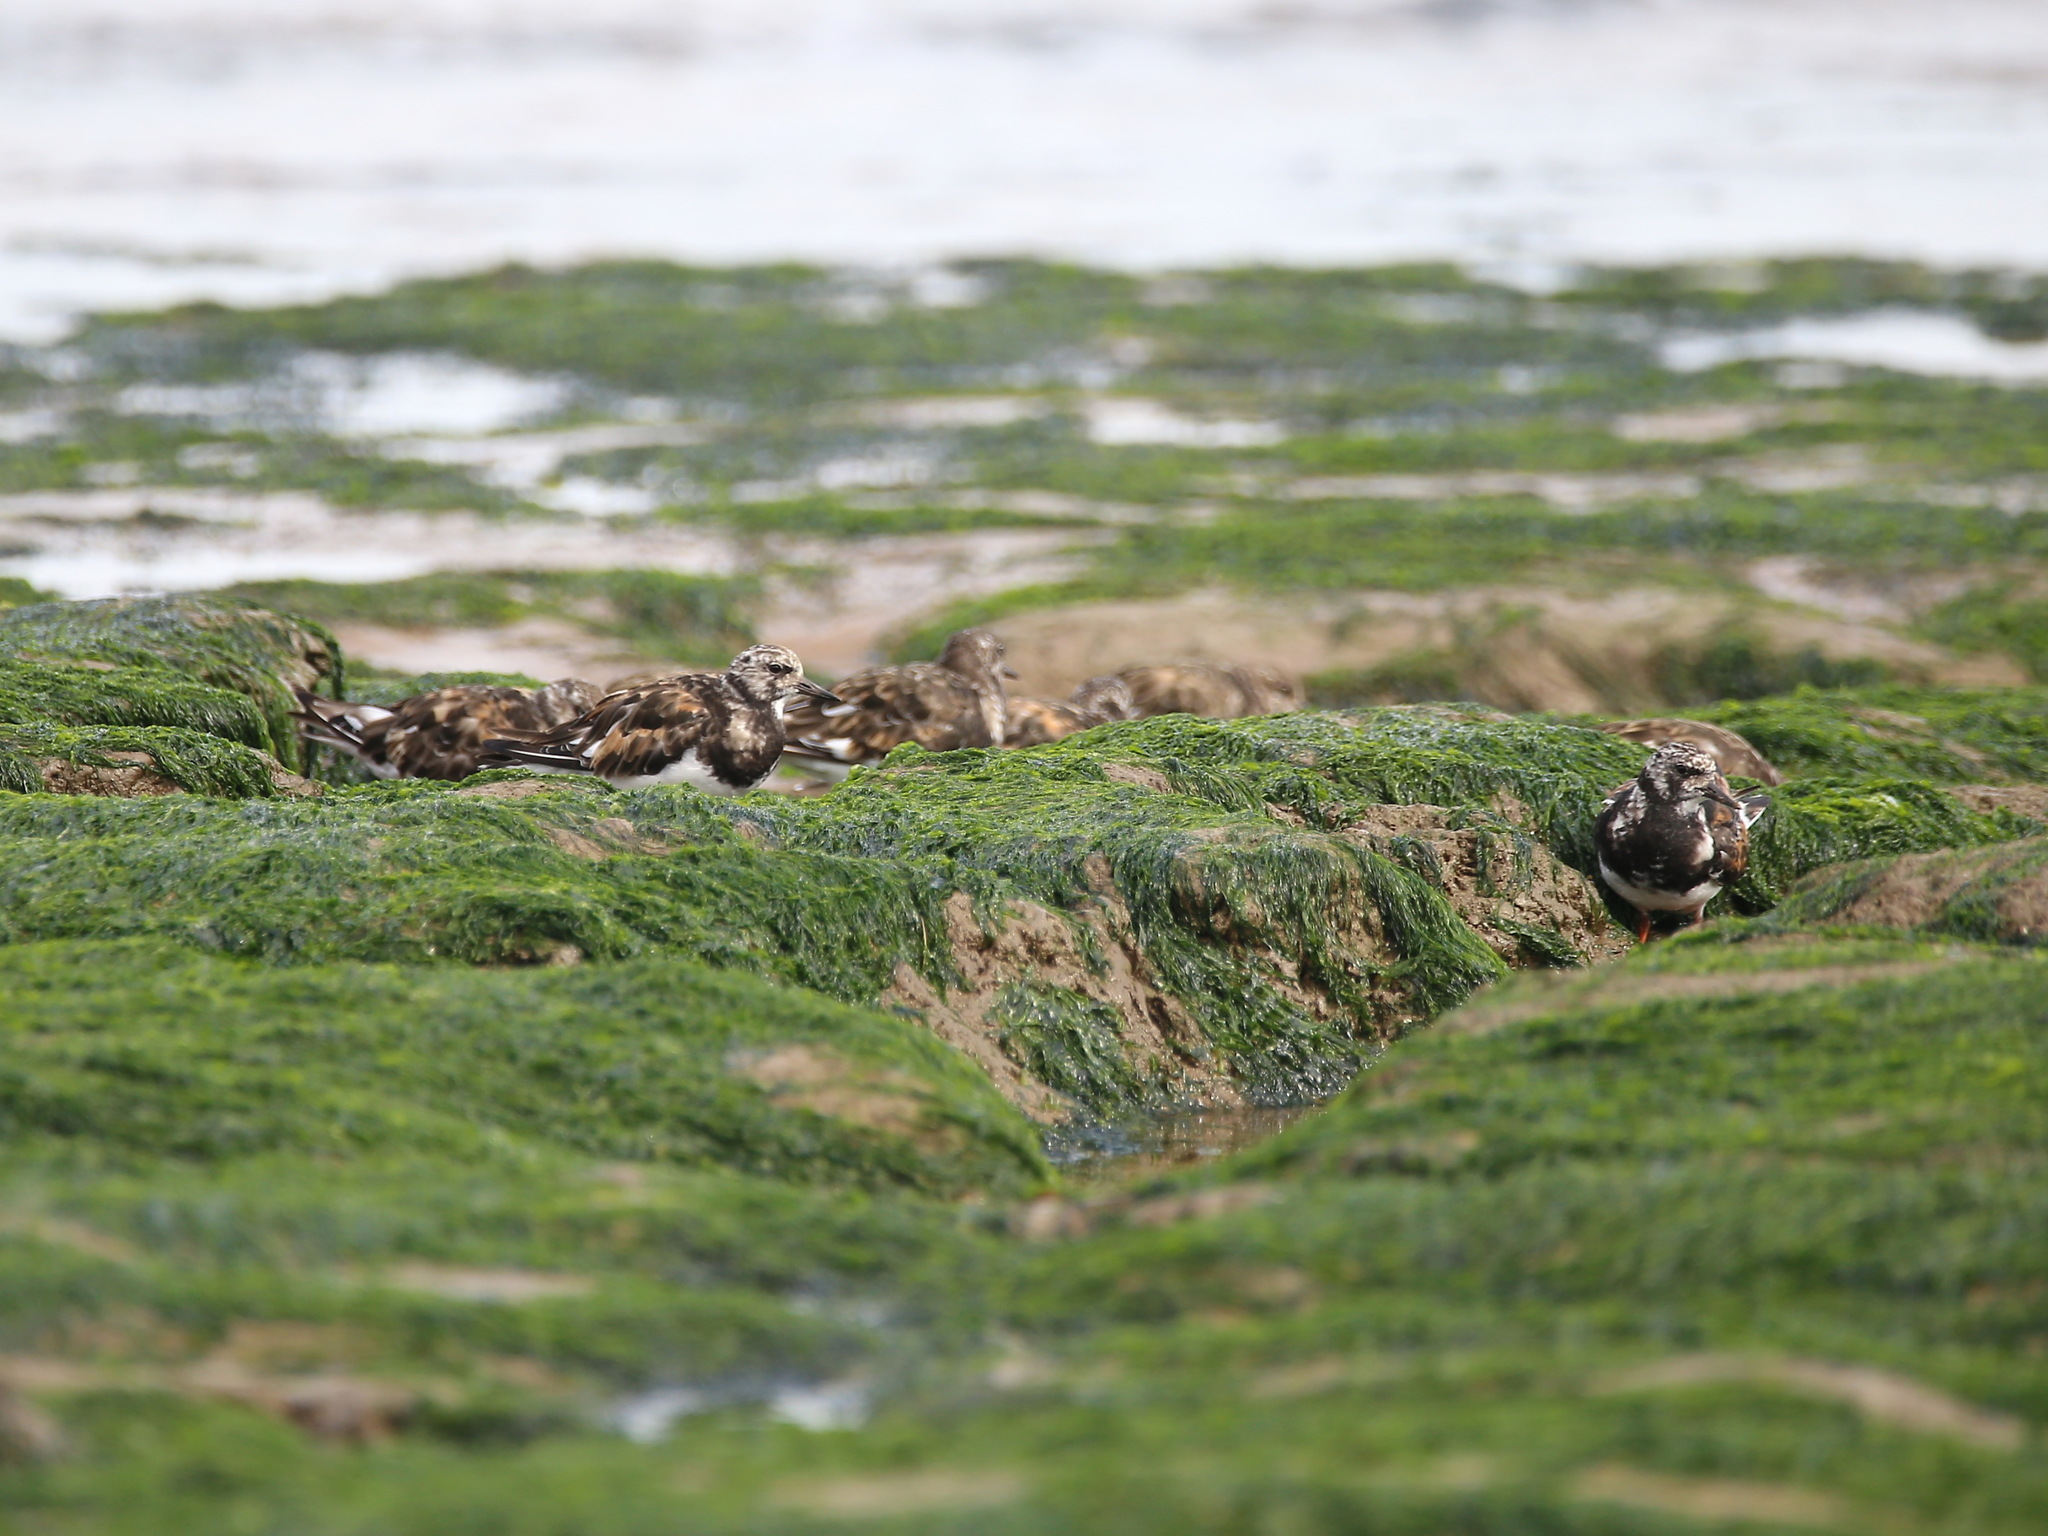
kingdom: Animalia
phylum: Chordata
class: Aves
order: Charadriiformes
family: Scolopacidae
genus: Arenaria
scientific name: Arenaria interpres
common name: Ruddy turnstone
